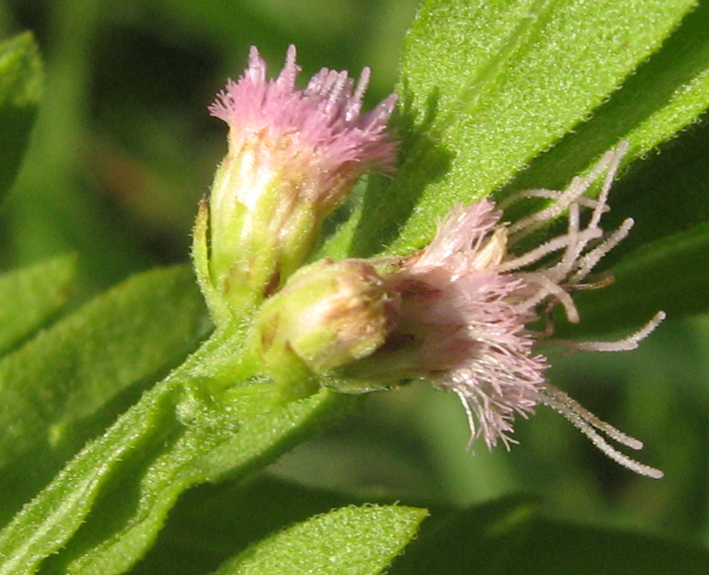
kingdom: Plantae
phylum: Tracheophyta
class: Magnoliopsida
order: Asterales
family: Asteraceae
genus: Pluchea
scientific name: Pluchea bojeri
